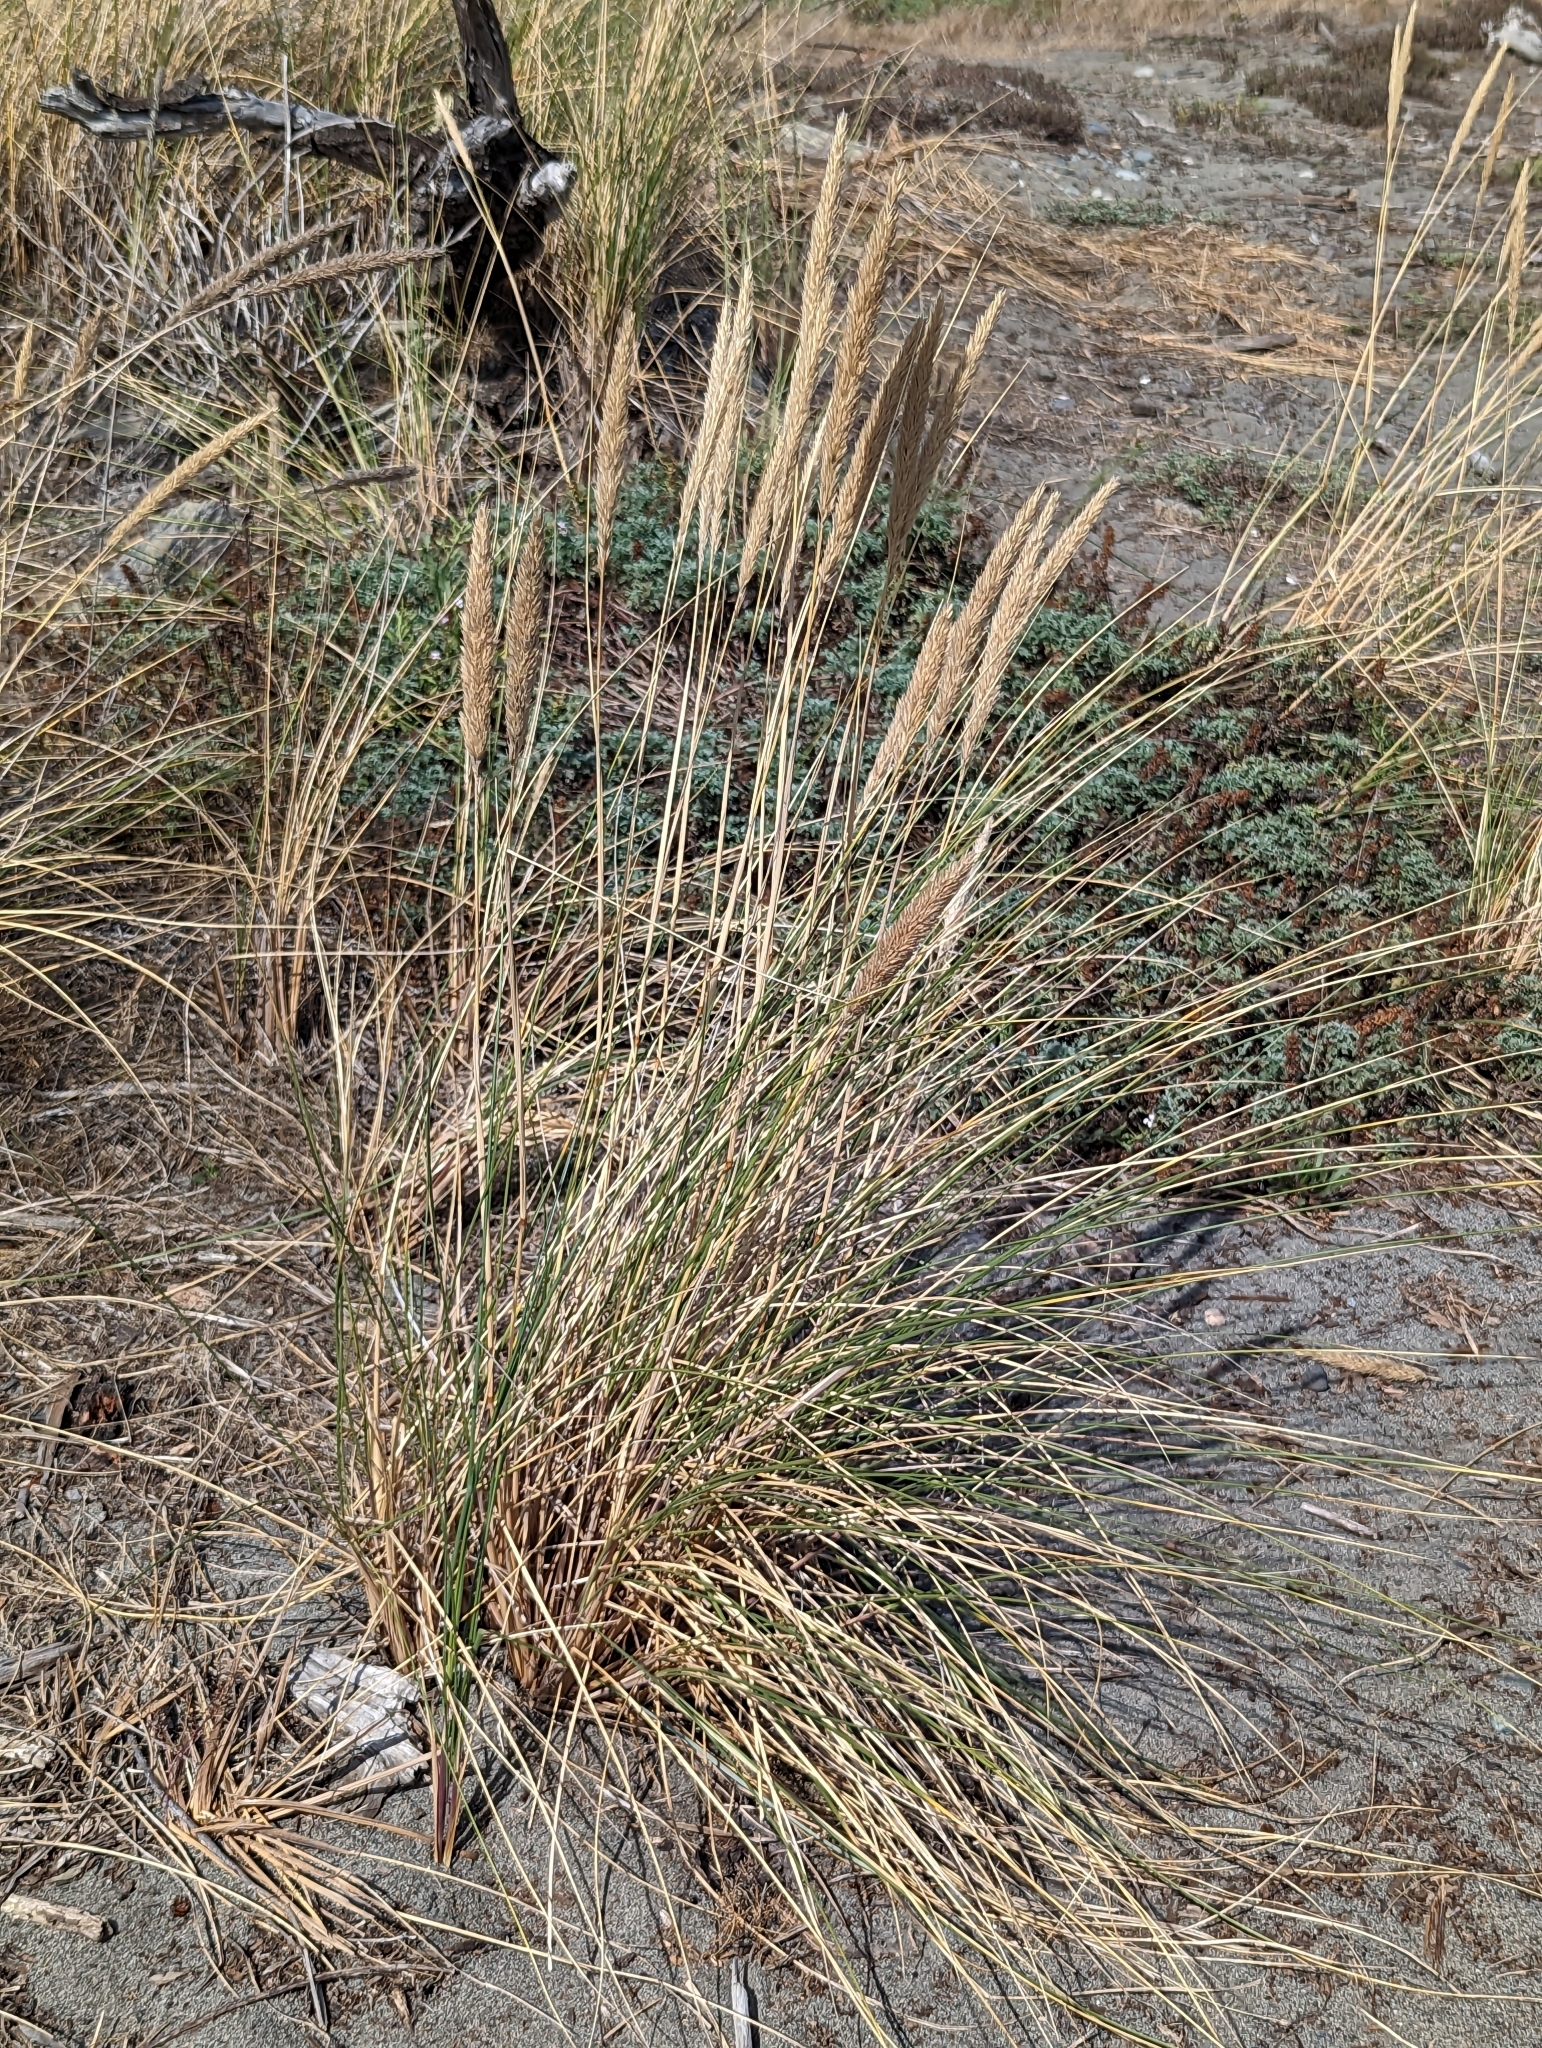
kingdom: Plantae
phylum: Tracheophyta
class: Liliopsida
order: Poales
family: Poaceae
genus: Calamagrostis
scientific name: Calamagrostis arenaria
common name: European beachgrass
